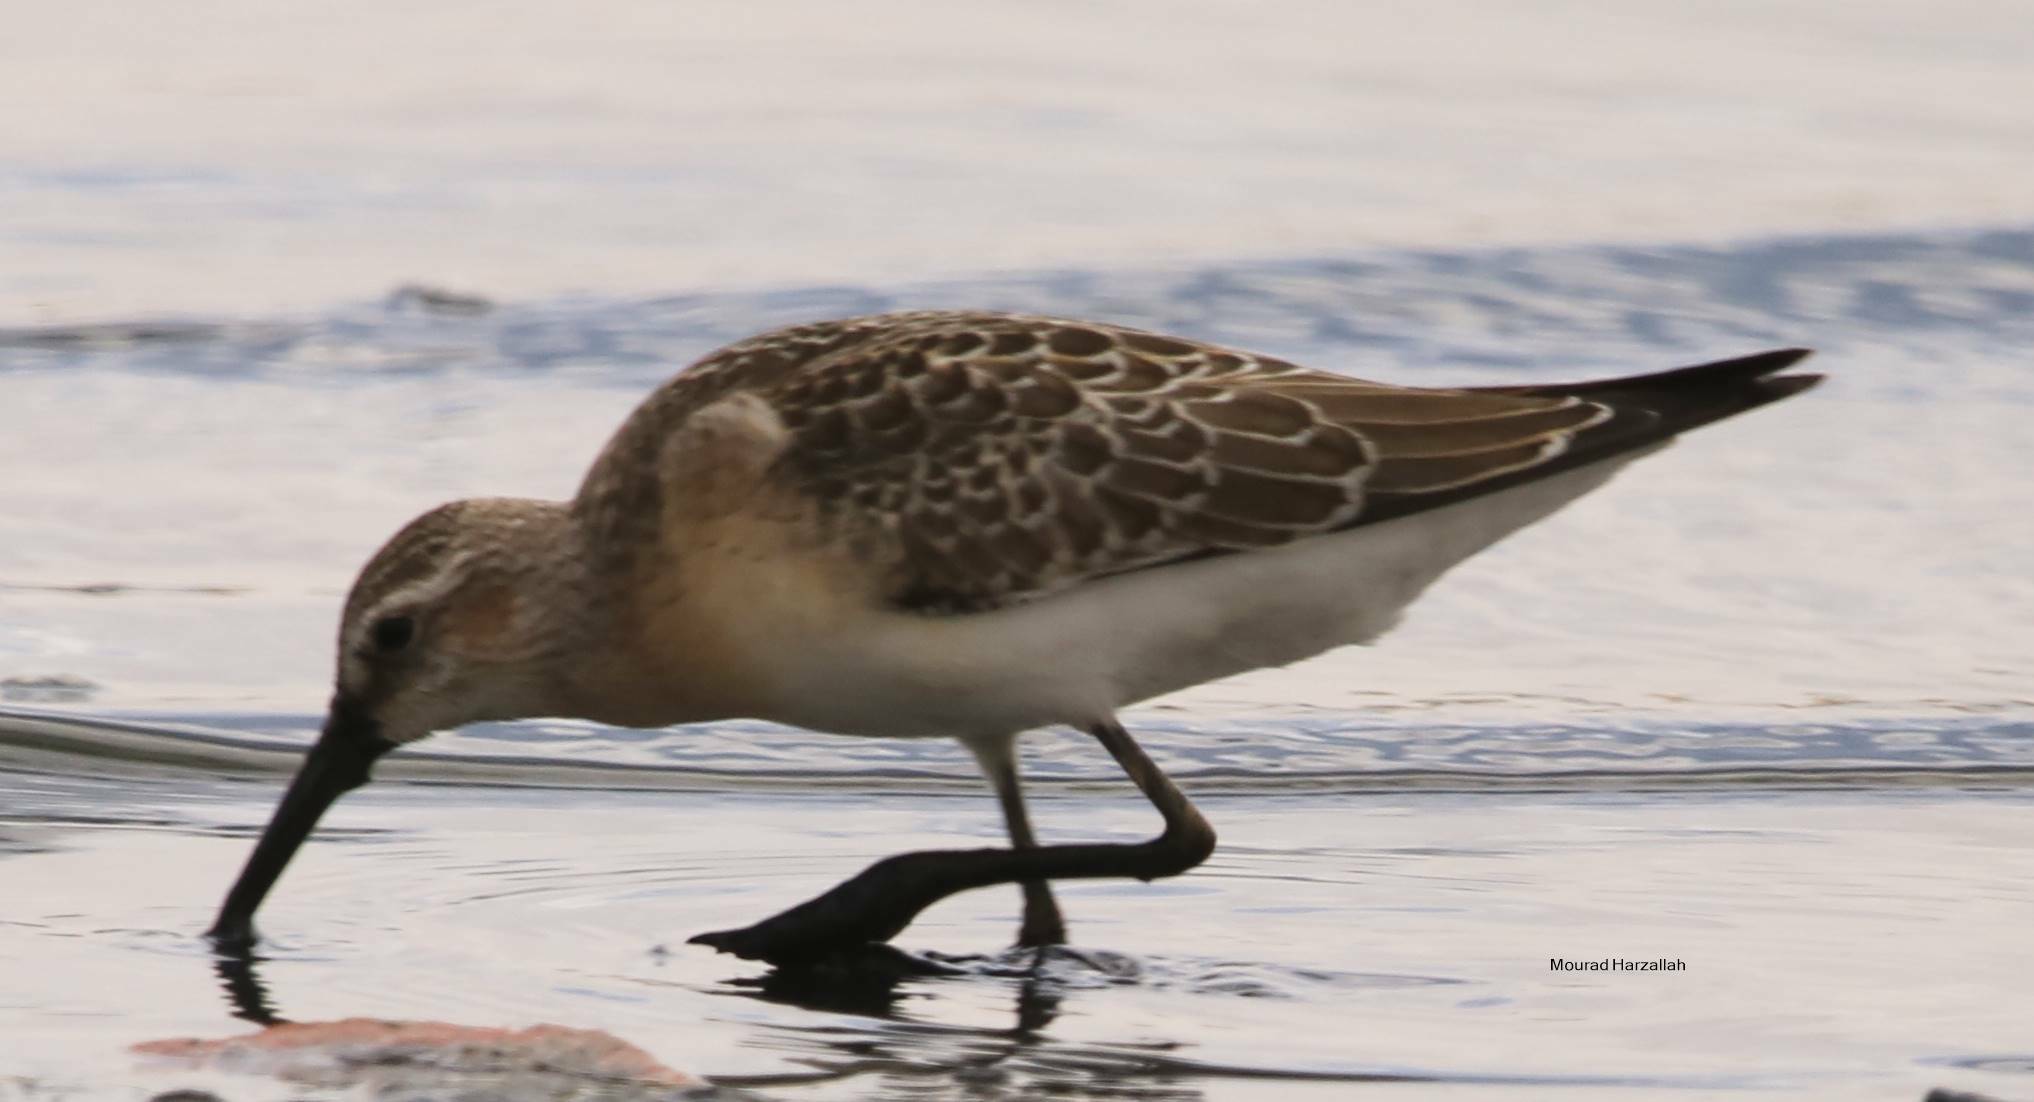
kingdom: Animalia
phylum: Chordata
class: Aves
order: Charadriiformes
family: Scolopacidae
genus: Calidris
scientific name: Calidris ferruginea
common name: Curlew sandpiper
